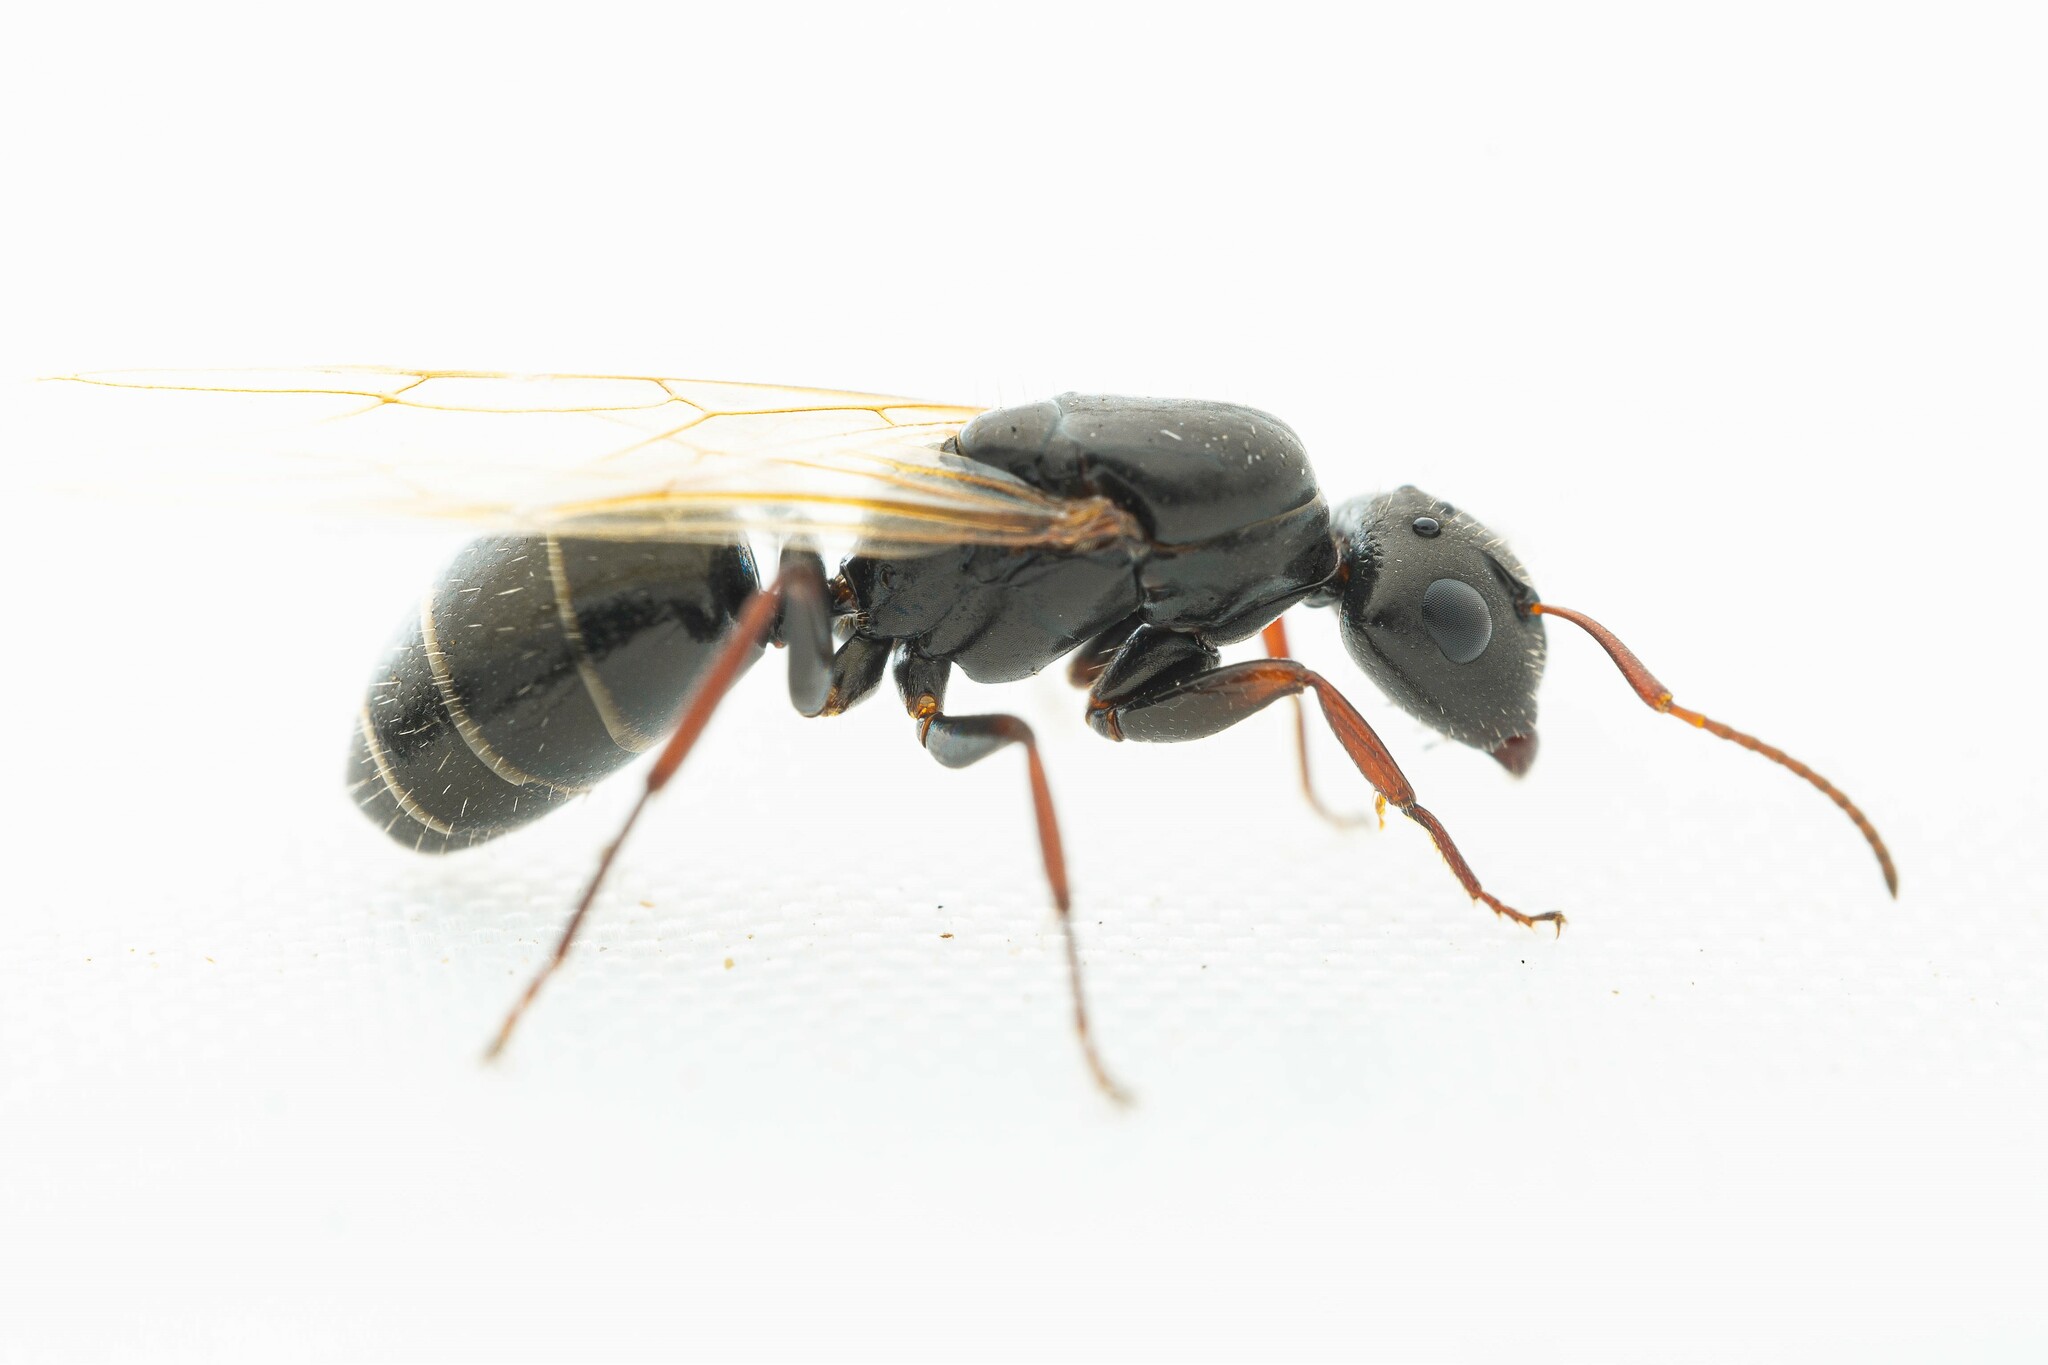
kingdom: Animalia
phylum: Arthropoda
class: Insecta
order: Hymenoptera
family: Formicidae
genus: Camponotus
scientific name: Camponotus mina
